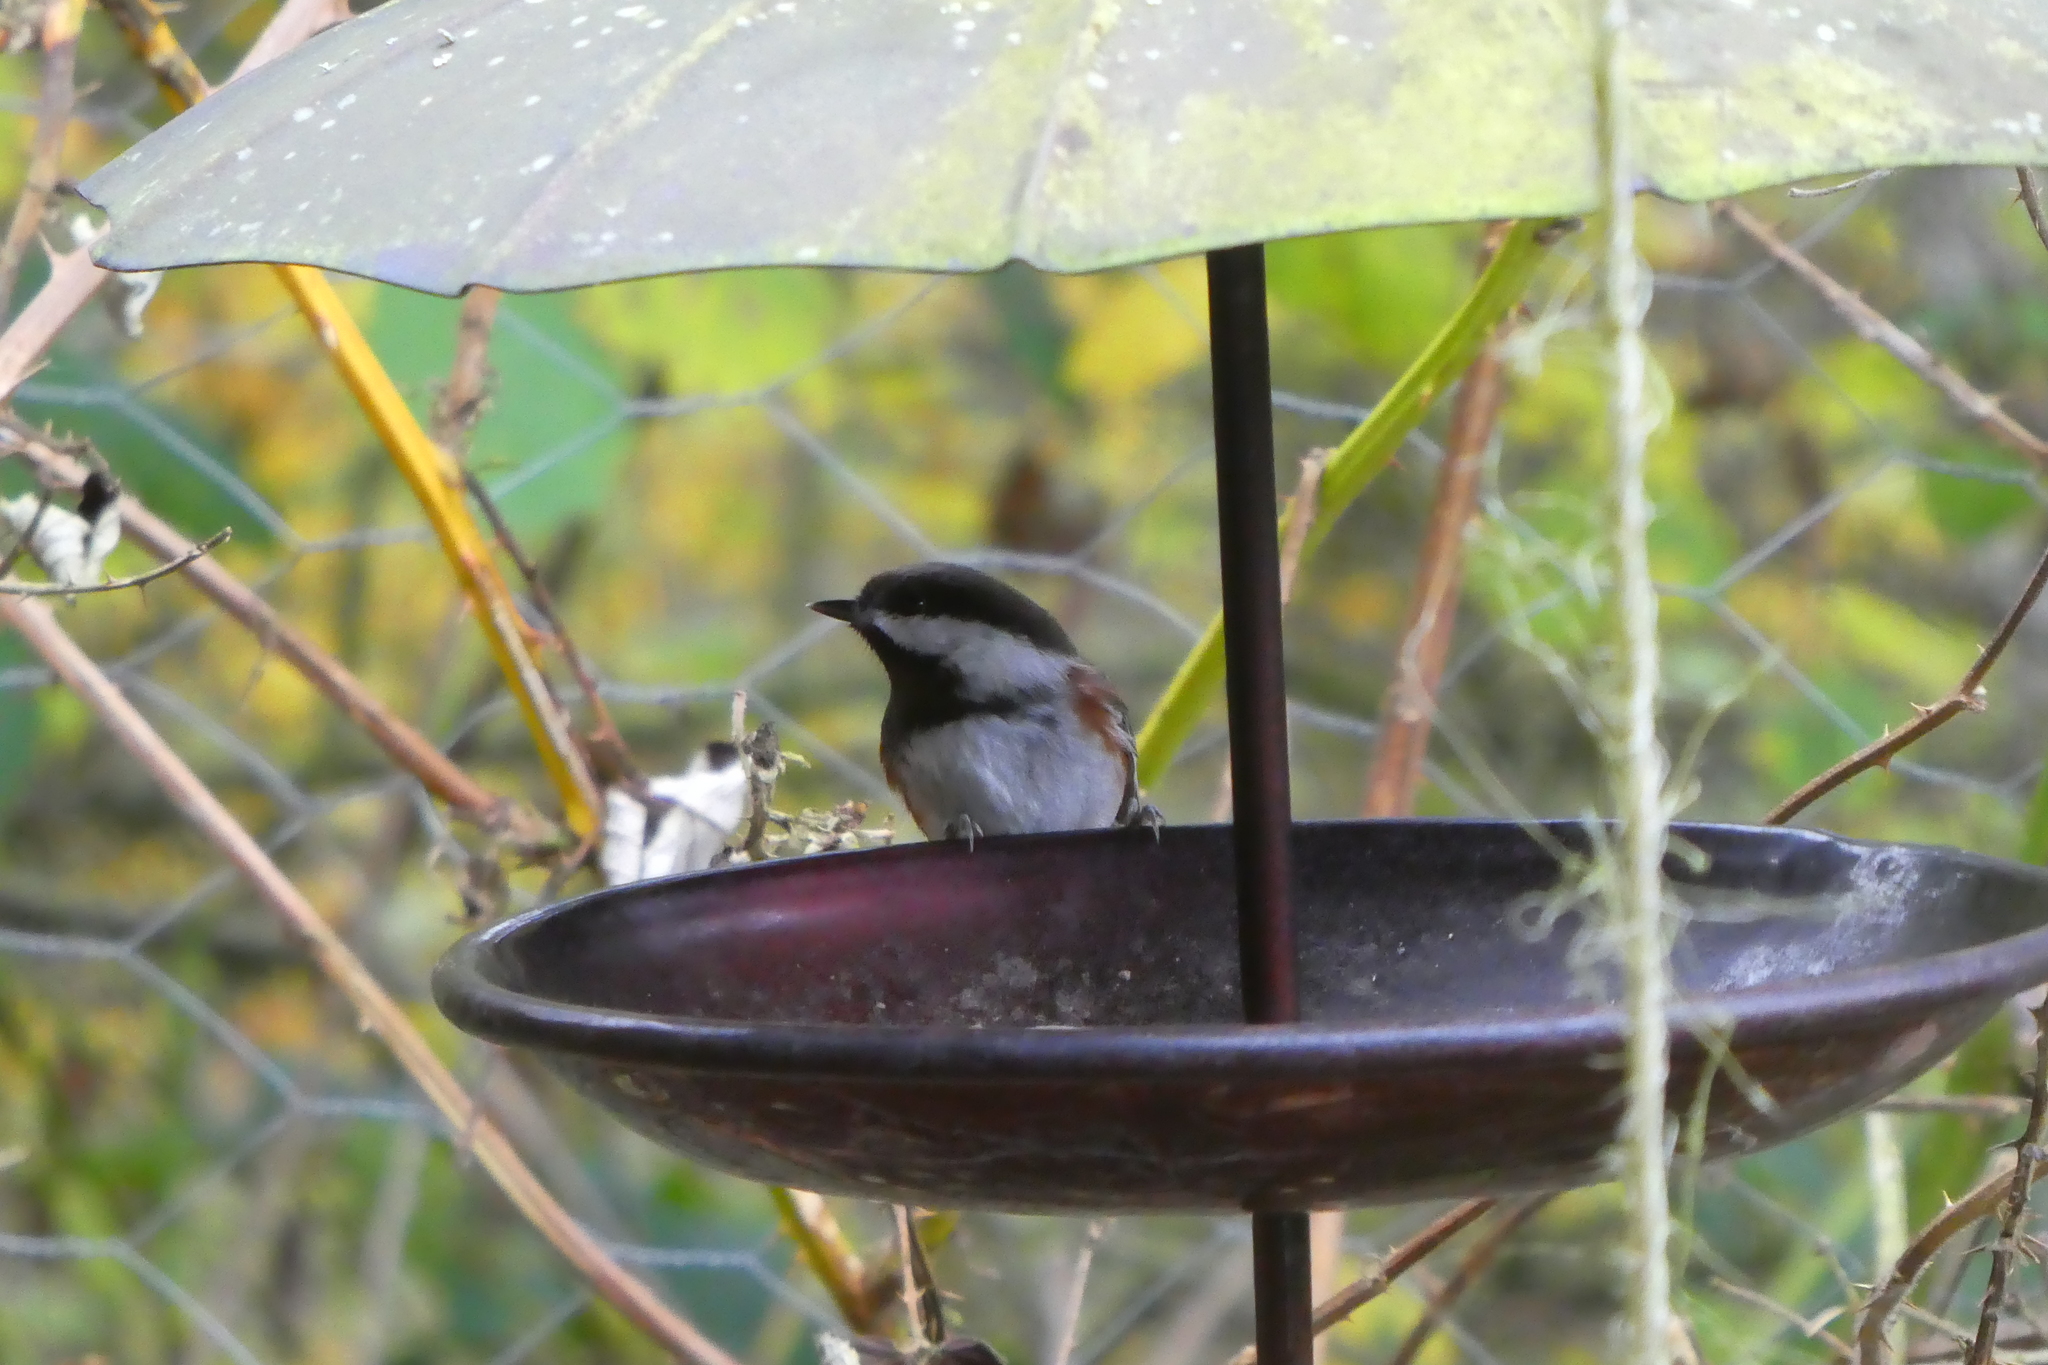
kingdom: Animalia
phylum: Chordata
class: Aves
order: Passeriformes
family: Paridae
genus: Poecile
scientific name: Poecile rufescens
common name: Chestnut-backed chickadee
